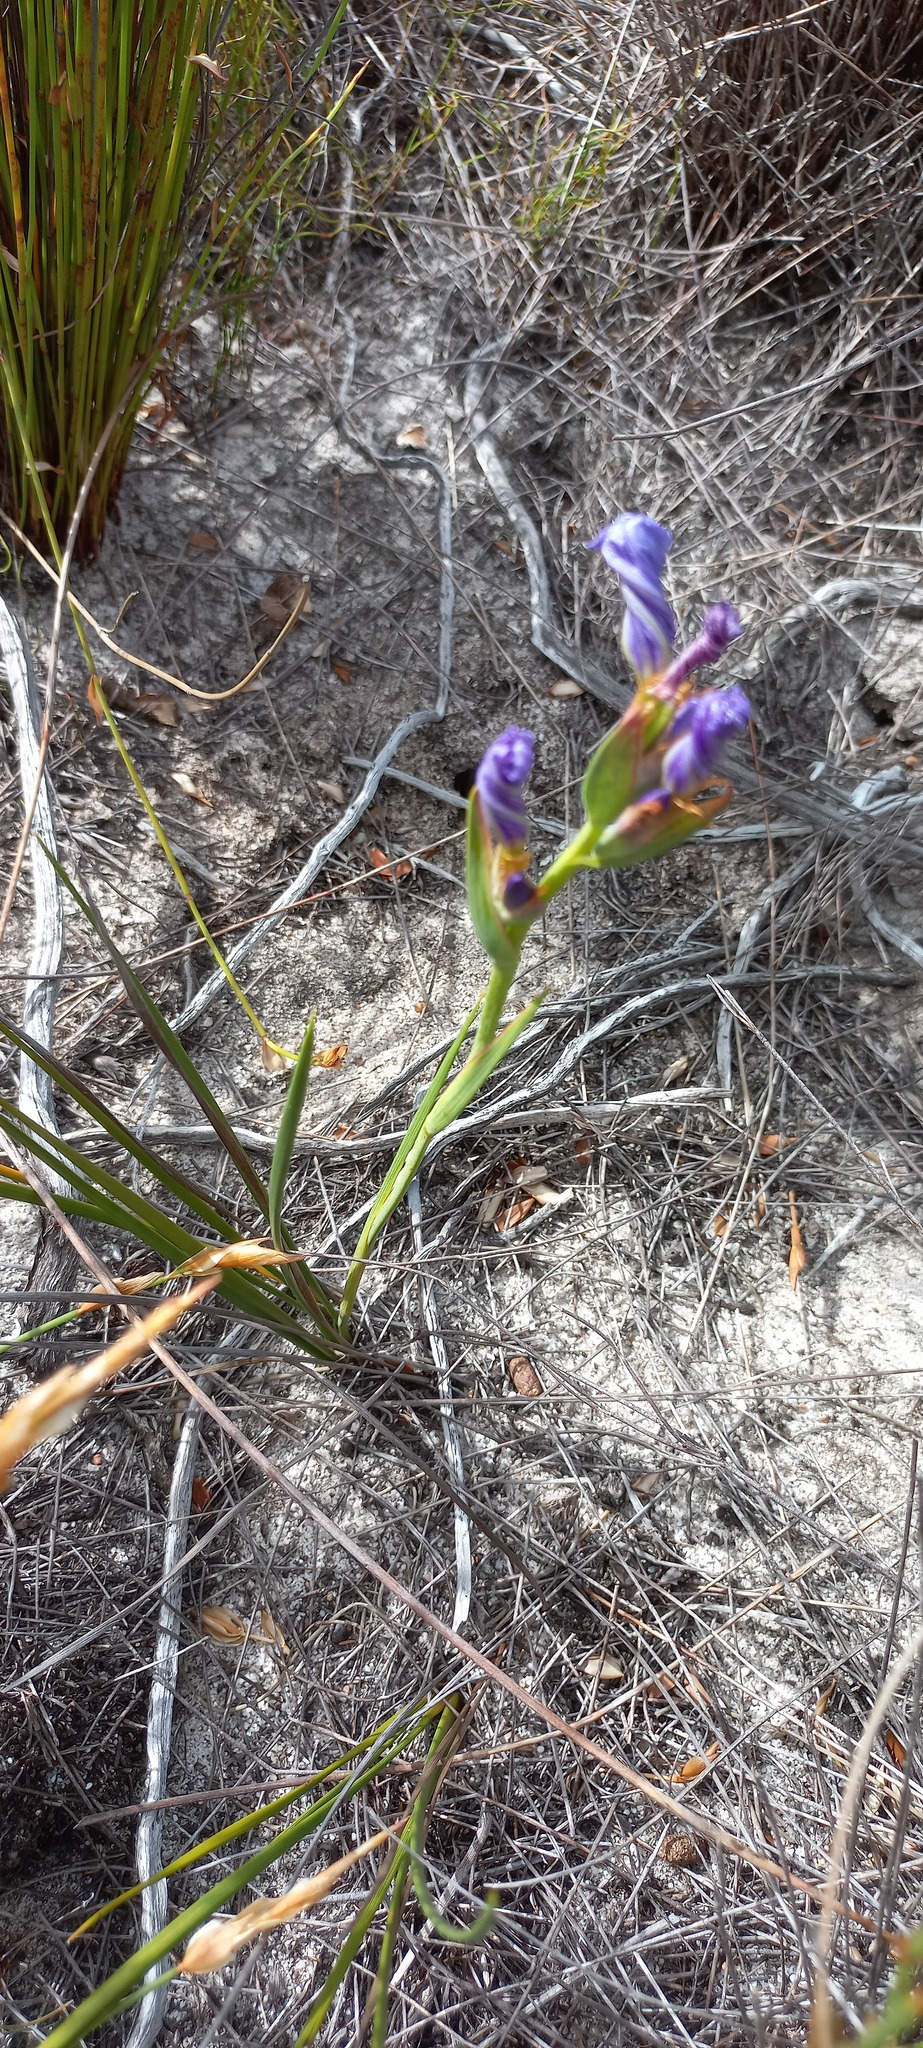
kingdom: Plantae
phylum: Tracheophyta
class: Liliopsida
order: Asparagales
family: Iridaceae
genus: Aristea
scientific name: Aristea juncifolia
